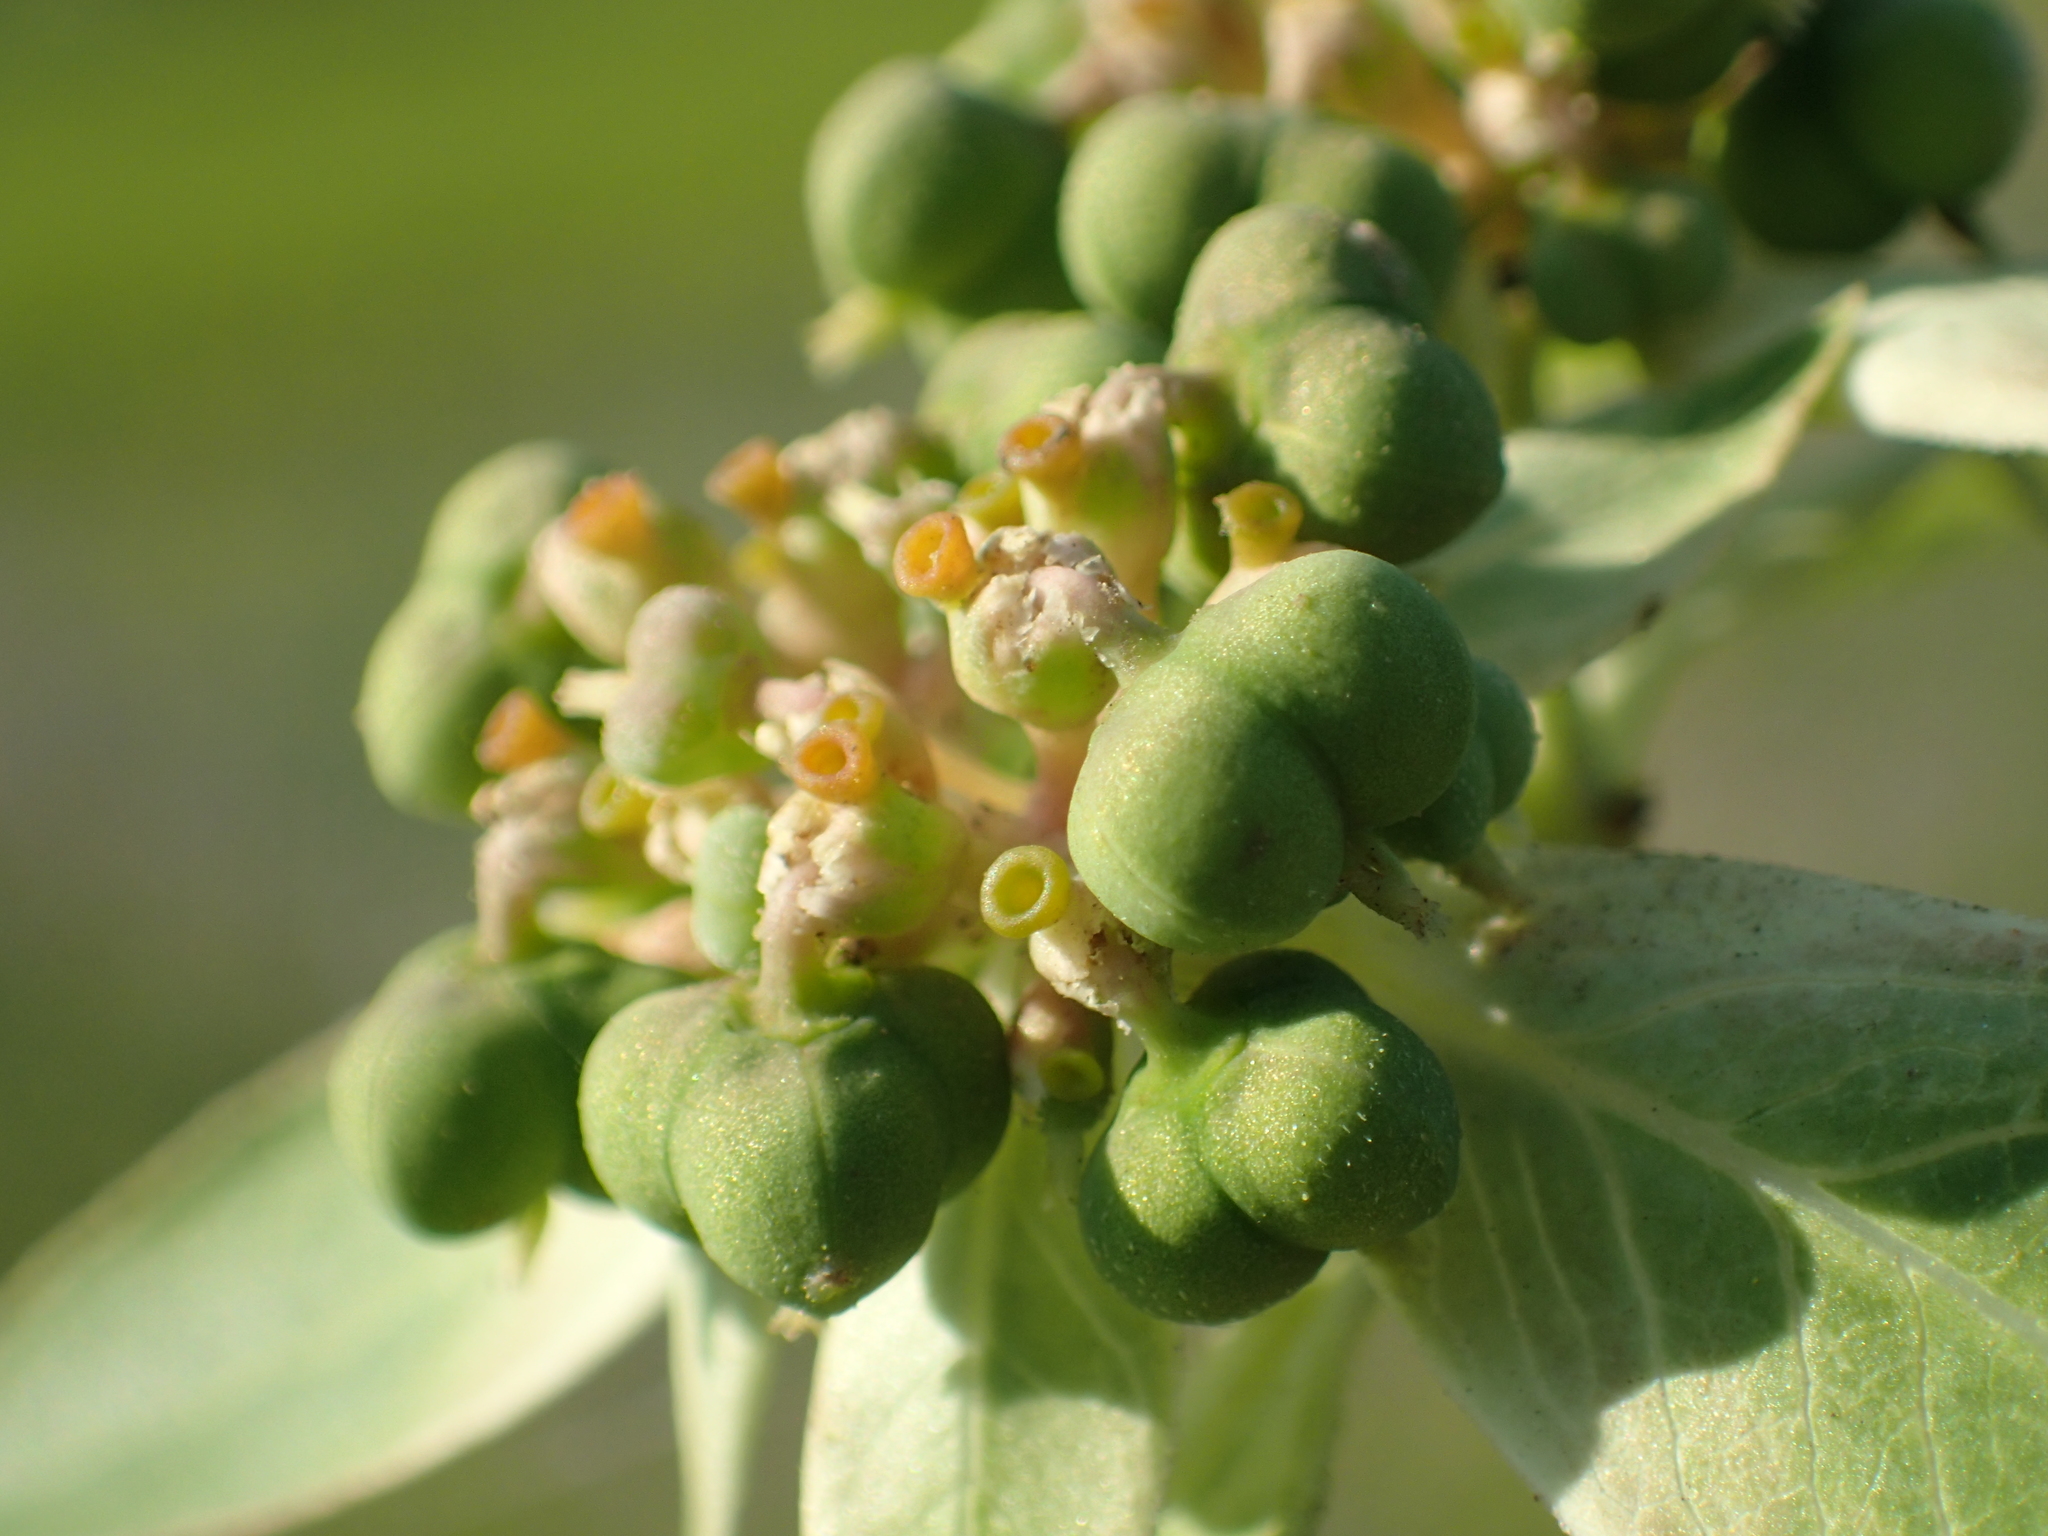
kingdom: Plantae
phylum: Tracheophyta
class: Magnoliopsida
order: Malpighiales
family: Euphorbiaceae
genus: Euphorbia
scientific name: Euphorbia heterophylla
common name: Mexican fireplant
